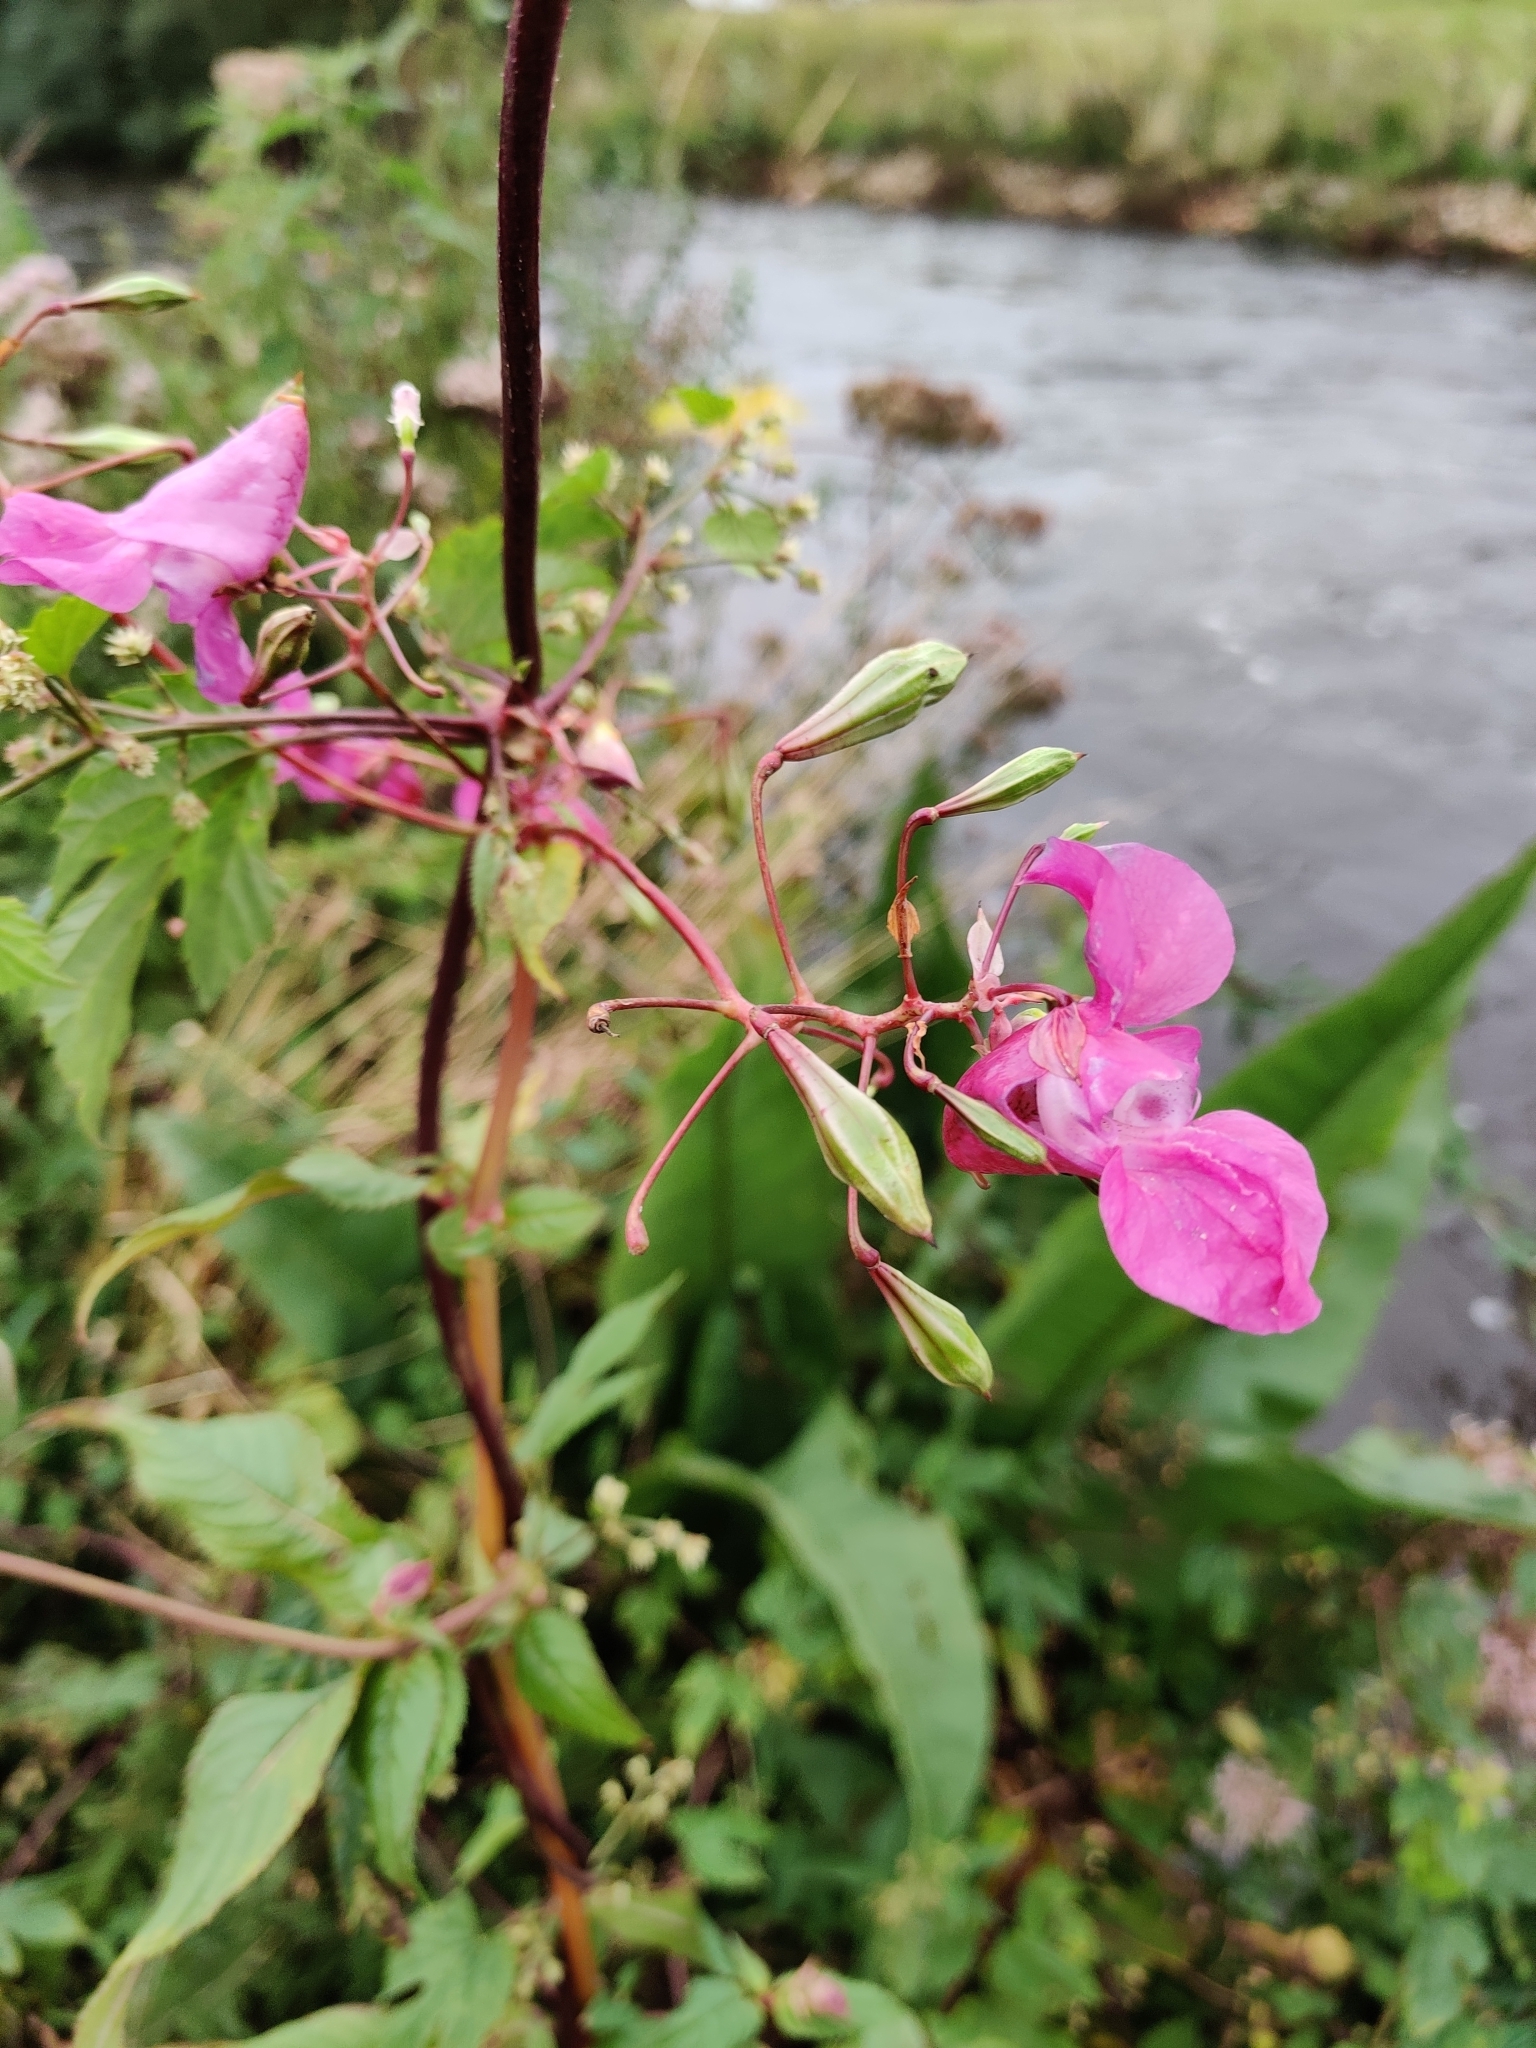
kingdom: Plantae
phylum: Tracheophyta
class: Magnoliopsida
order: Ericales
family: Balsaminaceae
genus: Impatiens
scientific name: Impatiens glandulifera
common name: Himalayan balsam
